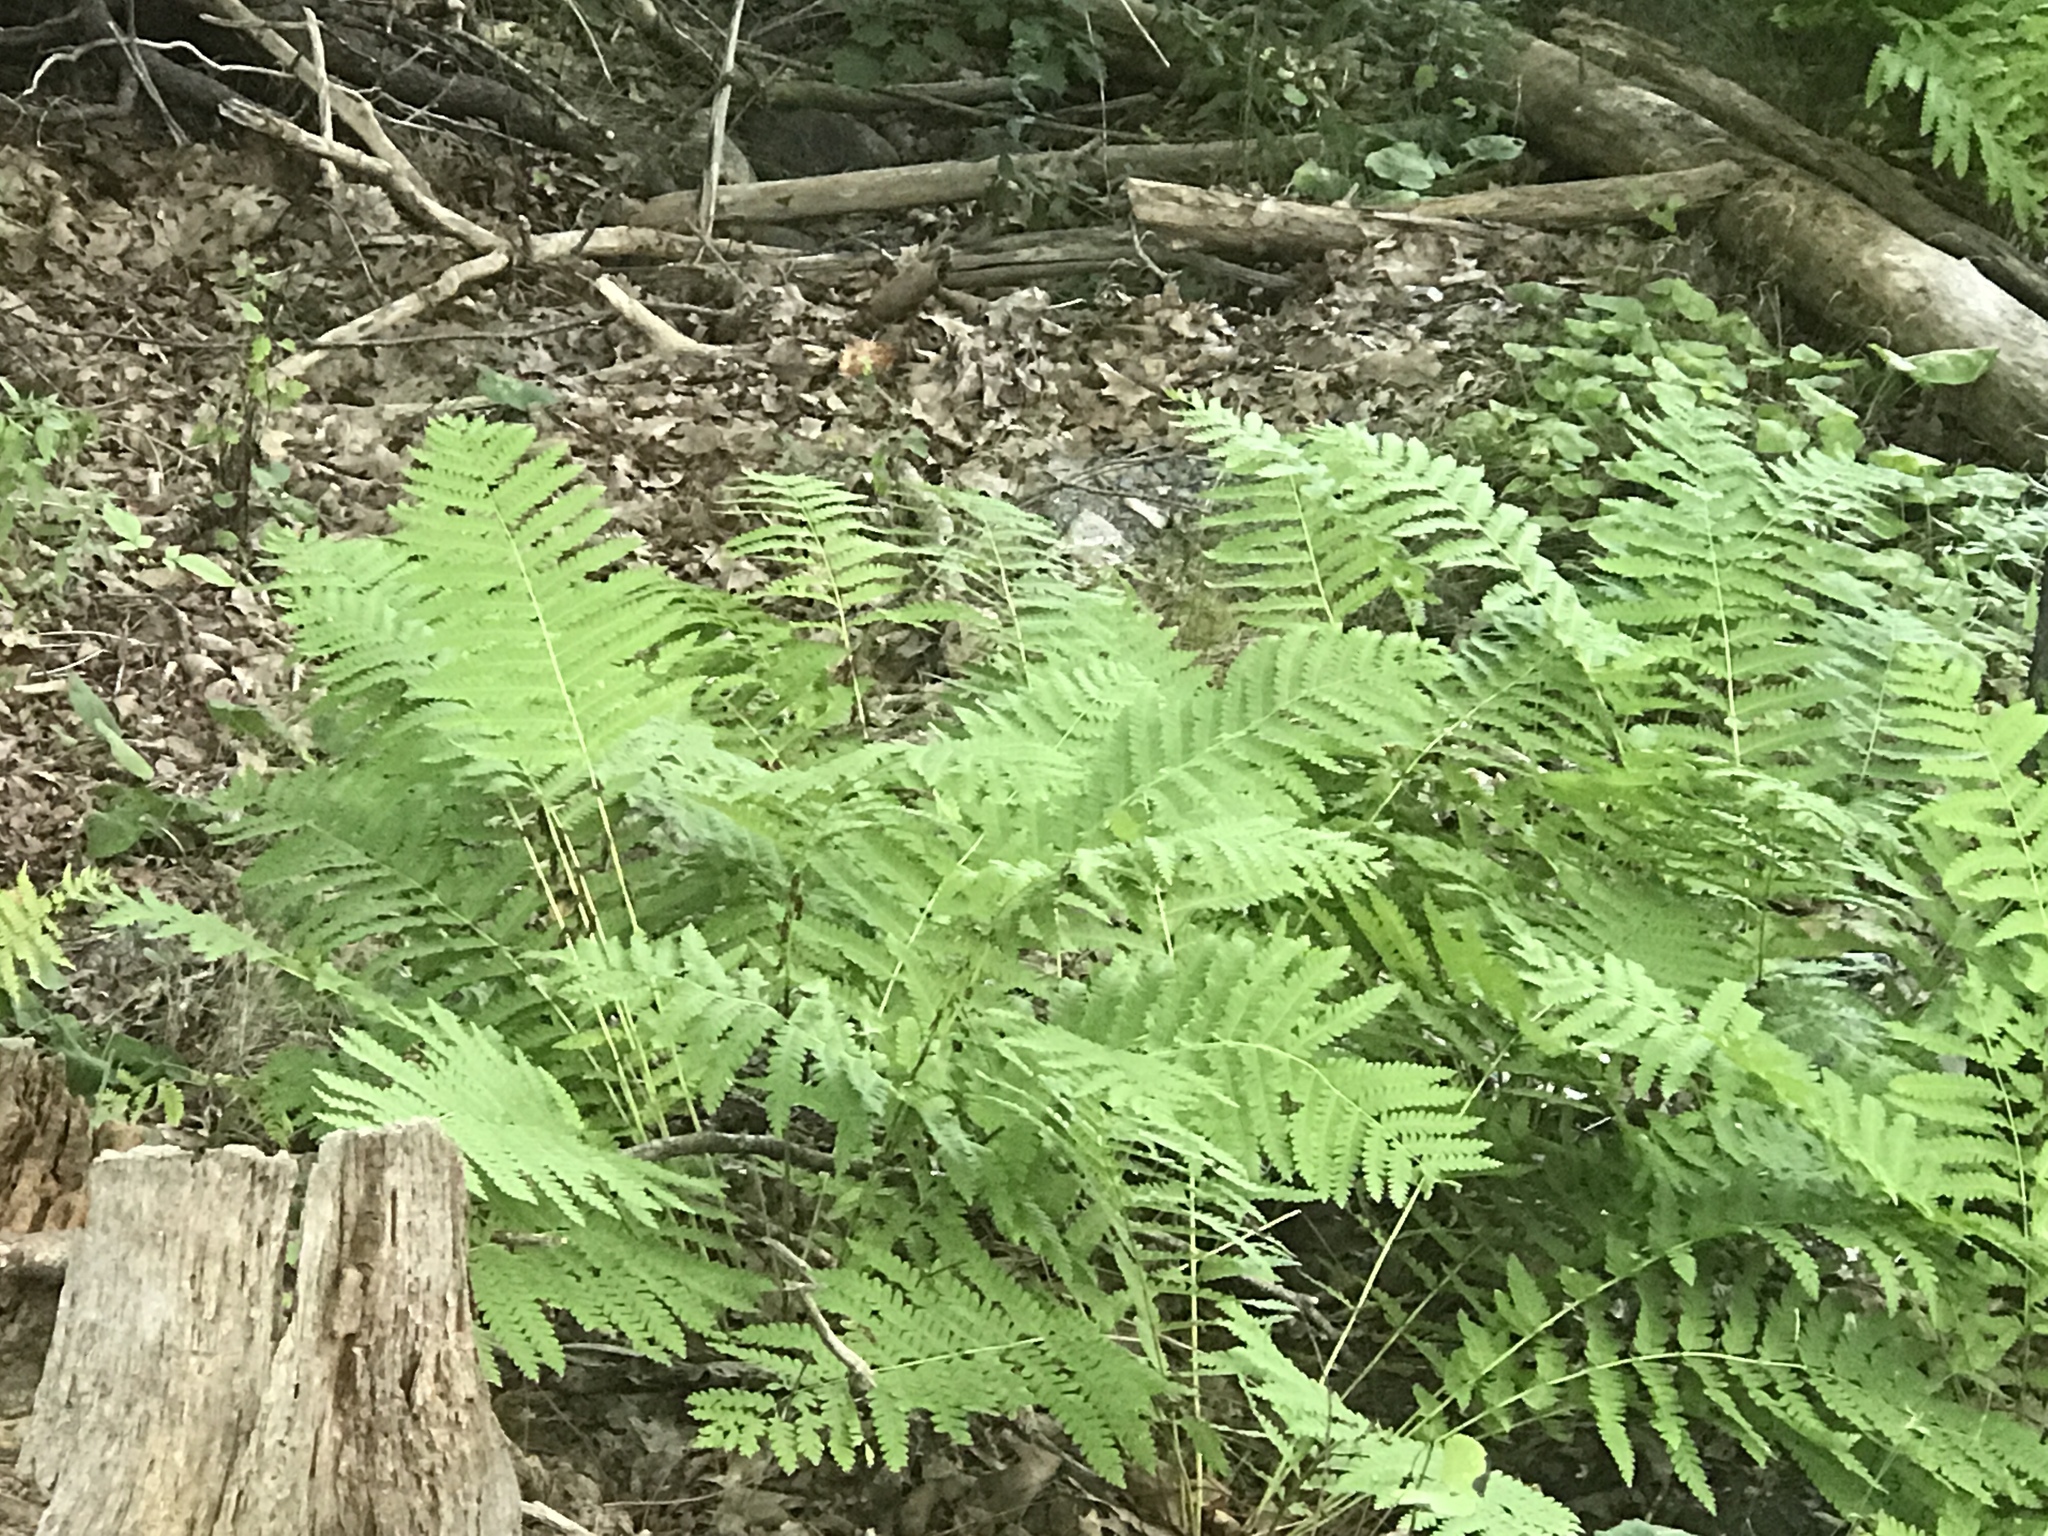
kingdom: Plantae
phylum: Tracheophyta
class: Polypodiopsida
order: Osmundales
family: Osmundaceae
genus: Claytosmunda
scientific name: Claytosmunda claytoniana
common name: Clayton's fern
